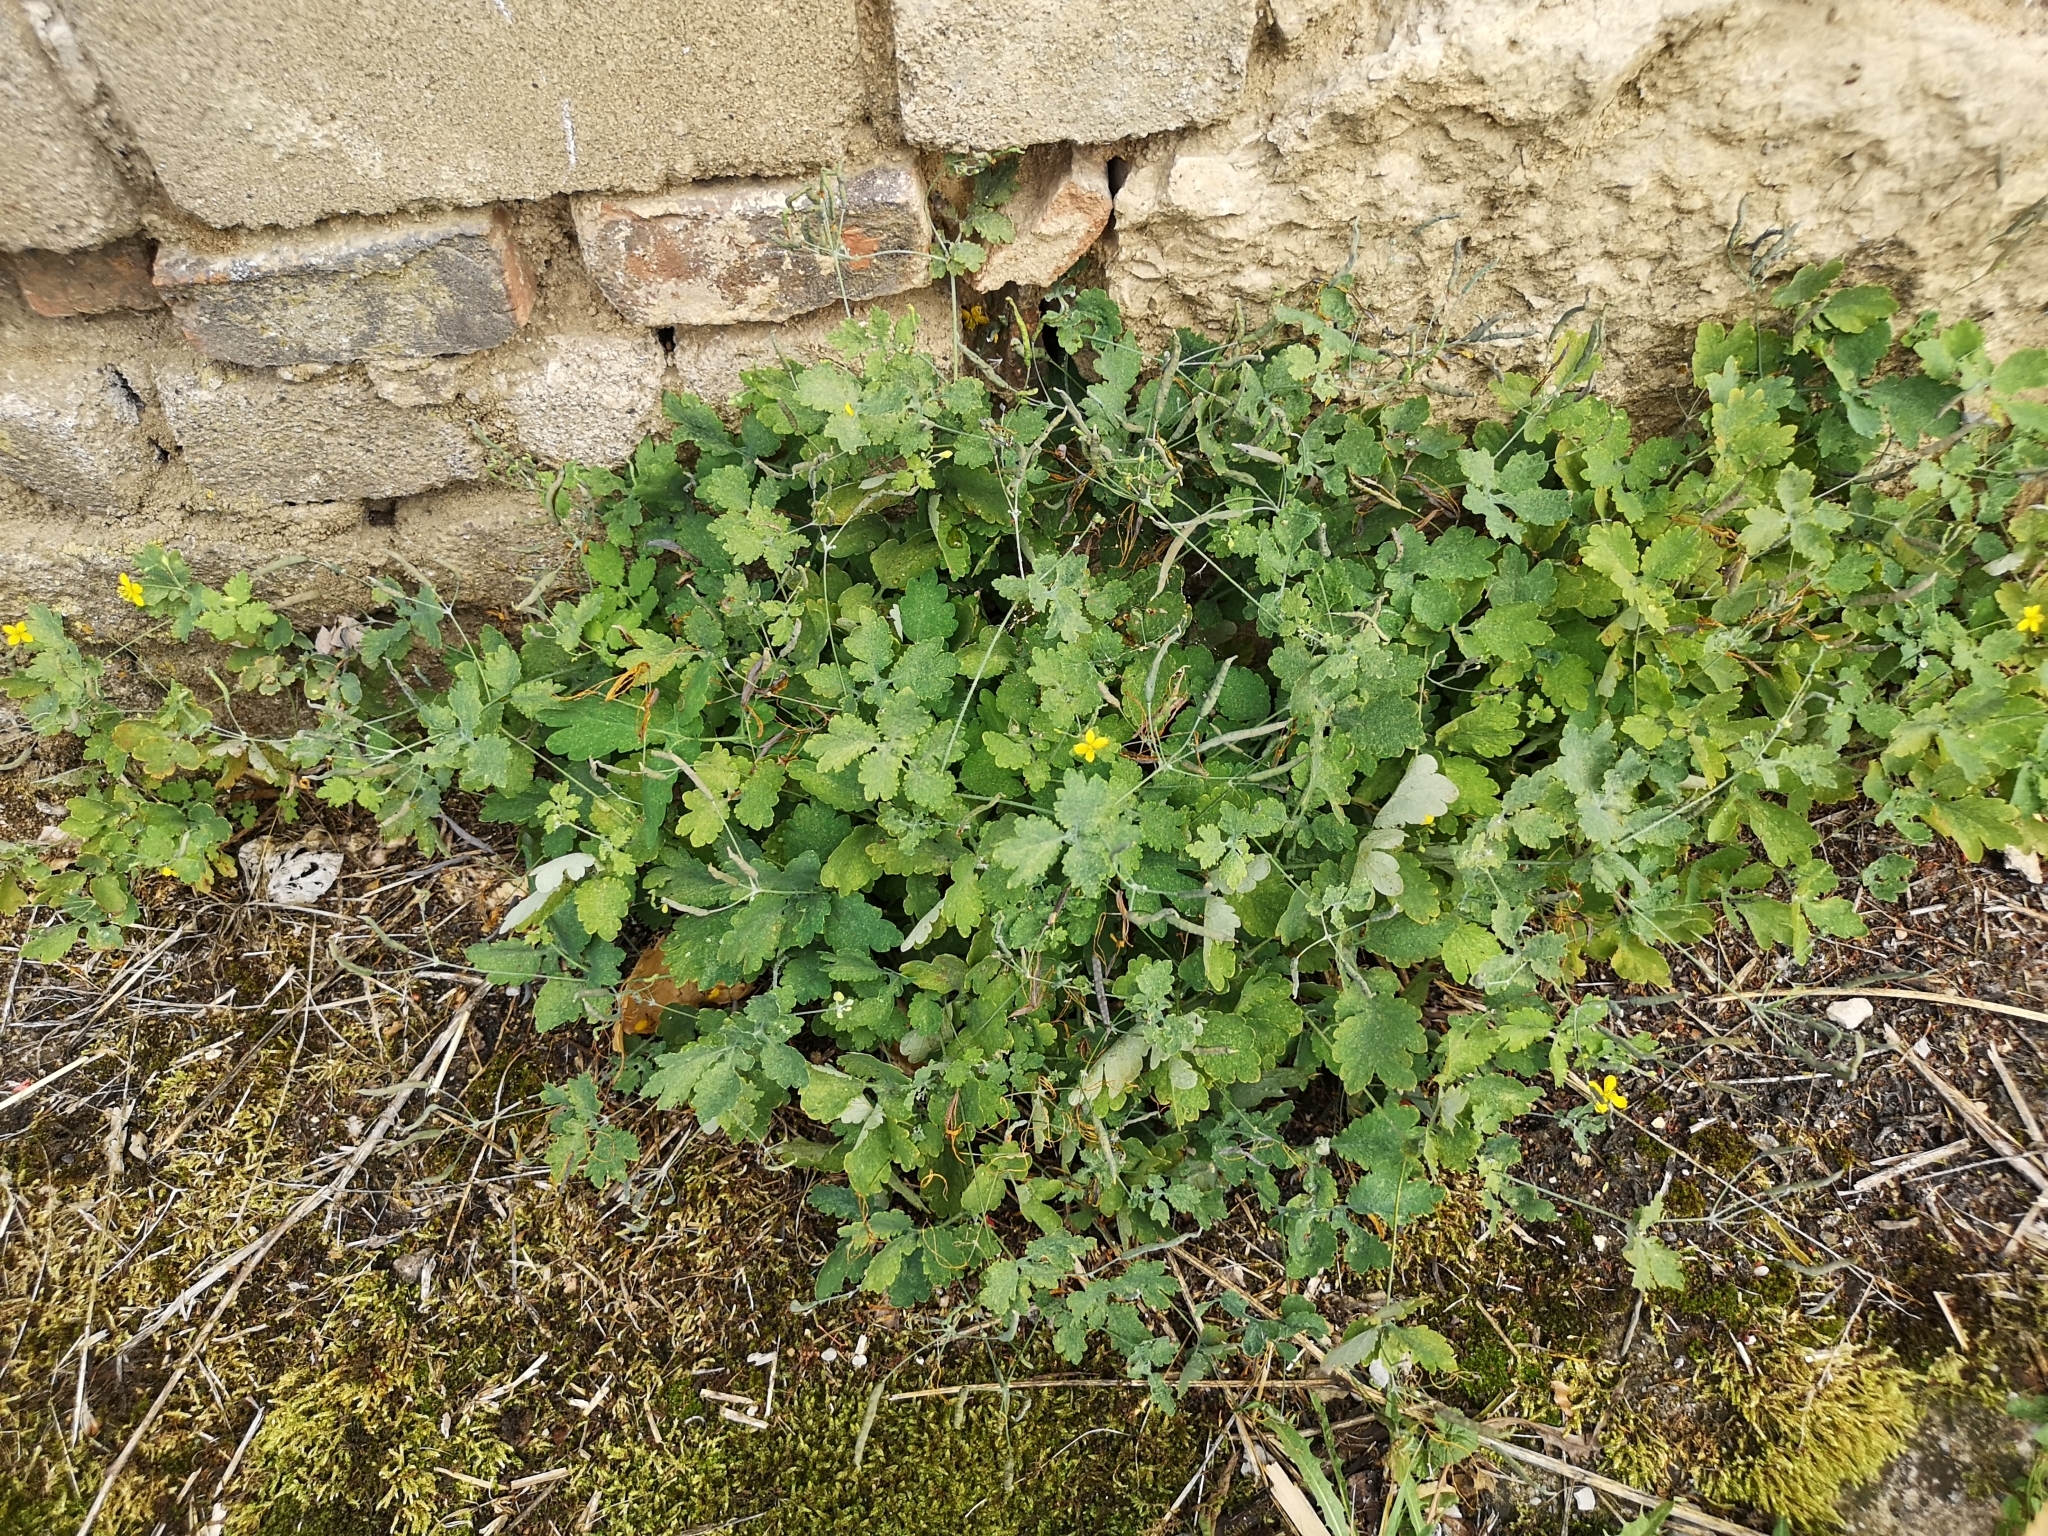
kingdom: Plantae
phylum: Tracheophyta
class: Magnoliopsida
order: Ranunculales
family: Papaveraceae
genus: Chelidonium
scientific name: Chelidonium majus
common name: Greater celandine
